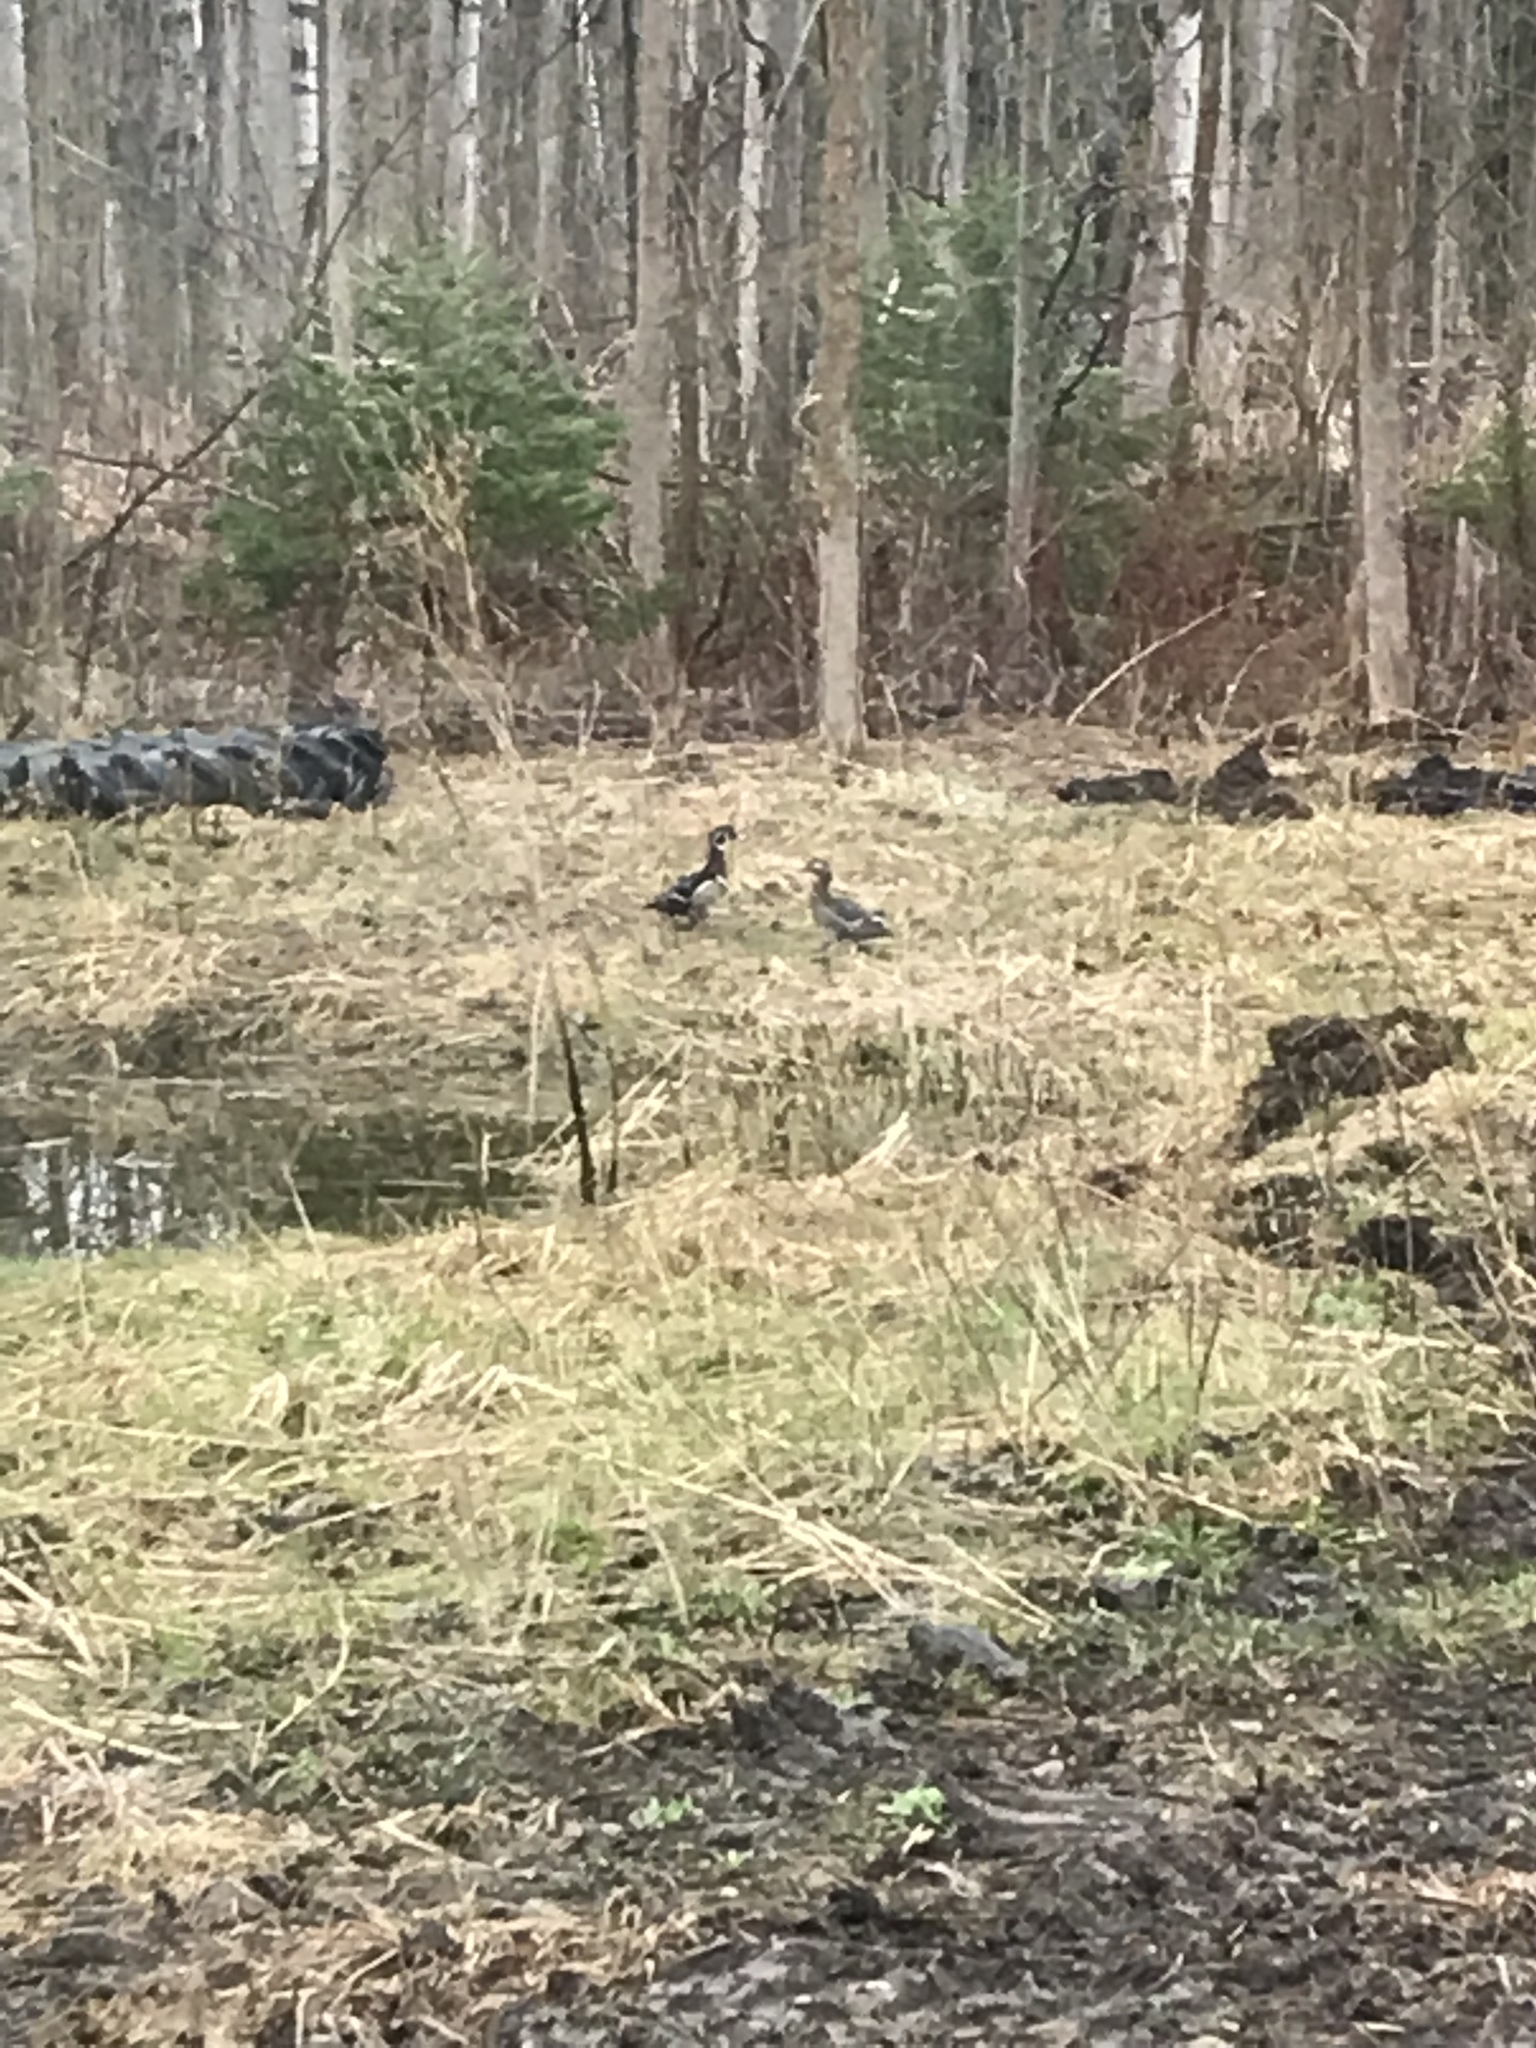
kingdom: Animalia
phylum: Chordata
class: Aves
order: Anseriformes
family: Anatidae
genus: Aix
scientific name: Aix sponsa
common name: Wood duck
